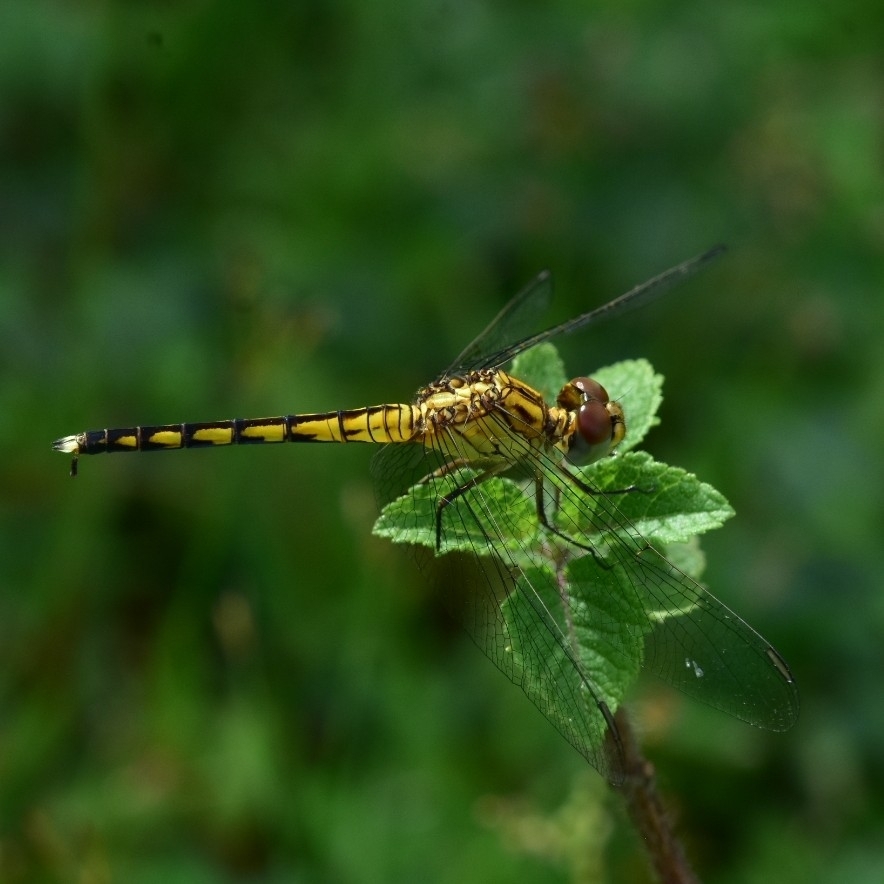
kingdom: Animalia
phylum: Arthropoda
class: Insecta
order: Odonata
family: Libellulidae
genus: Indothemis
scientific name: Indothemis carnatica
